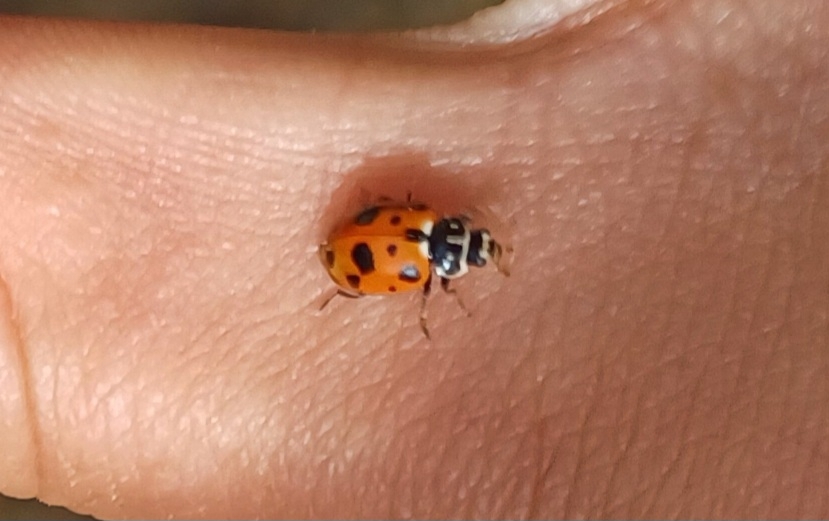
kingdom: Animalia
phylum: Arthropoda
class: Insecta
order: Coleoptera
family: Coccinellidae
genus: Hippodamia
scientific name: Hippodamia variegata
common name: Ladybird beetle
